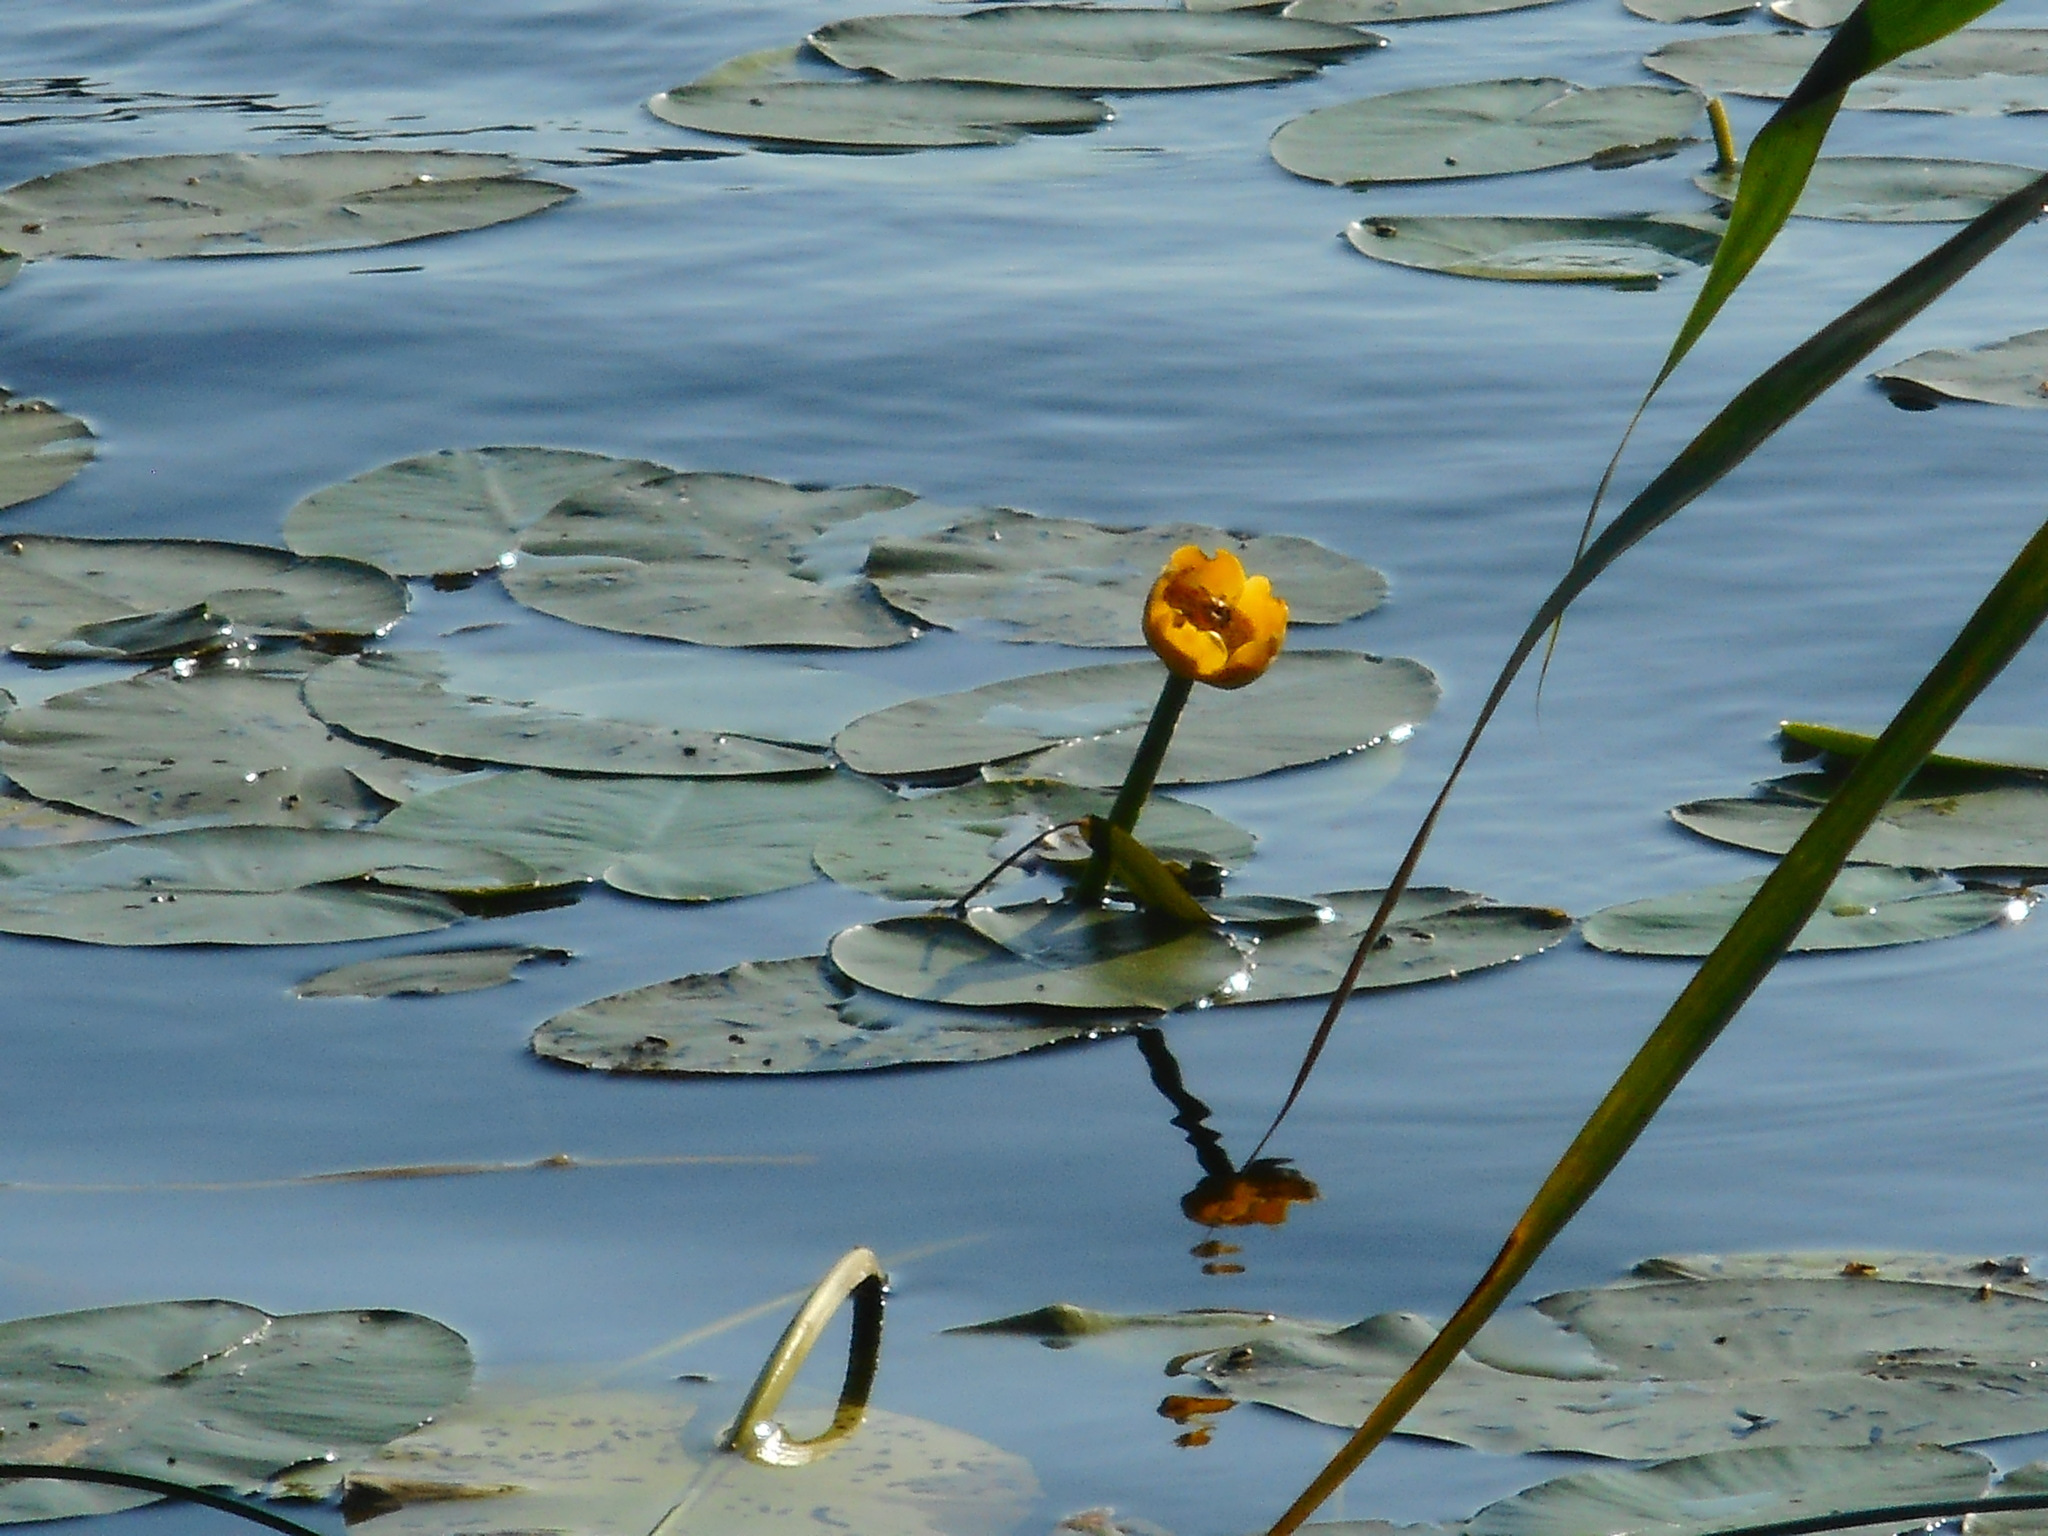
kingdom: Plantae
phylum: Tracheophyta
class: Magnoliopsida
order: Nymphaeales
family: Nymphaeaceae
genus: Nuphar
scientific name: Nuphar lutea
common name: Yellow water-lily
